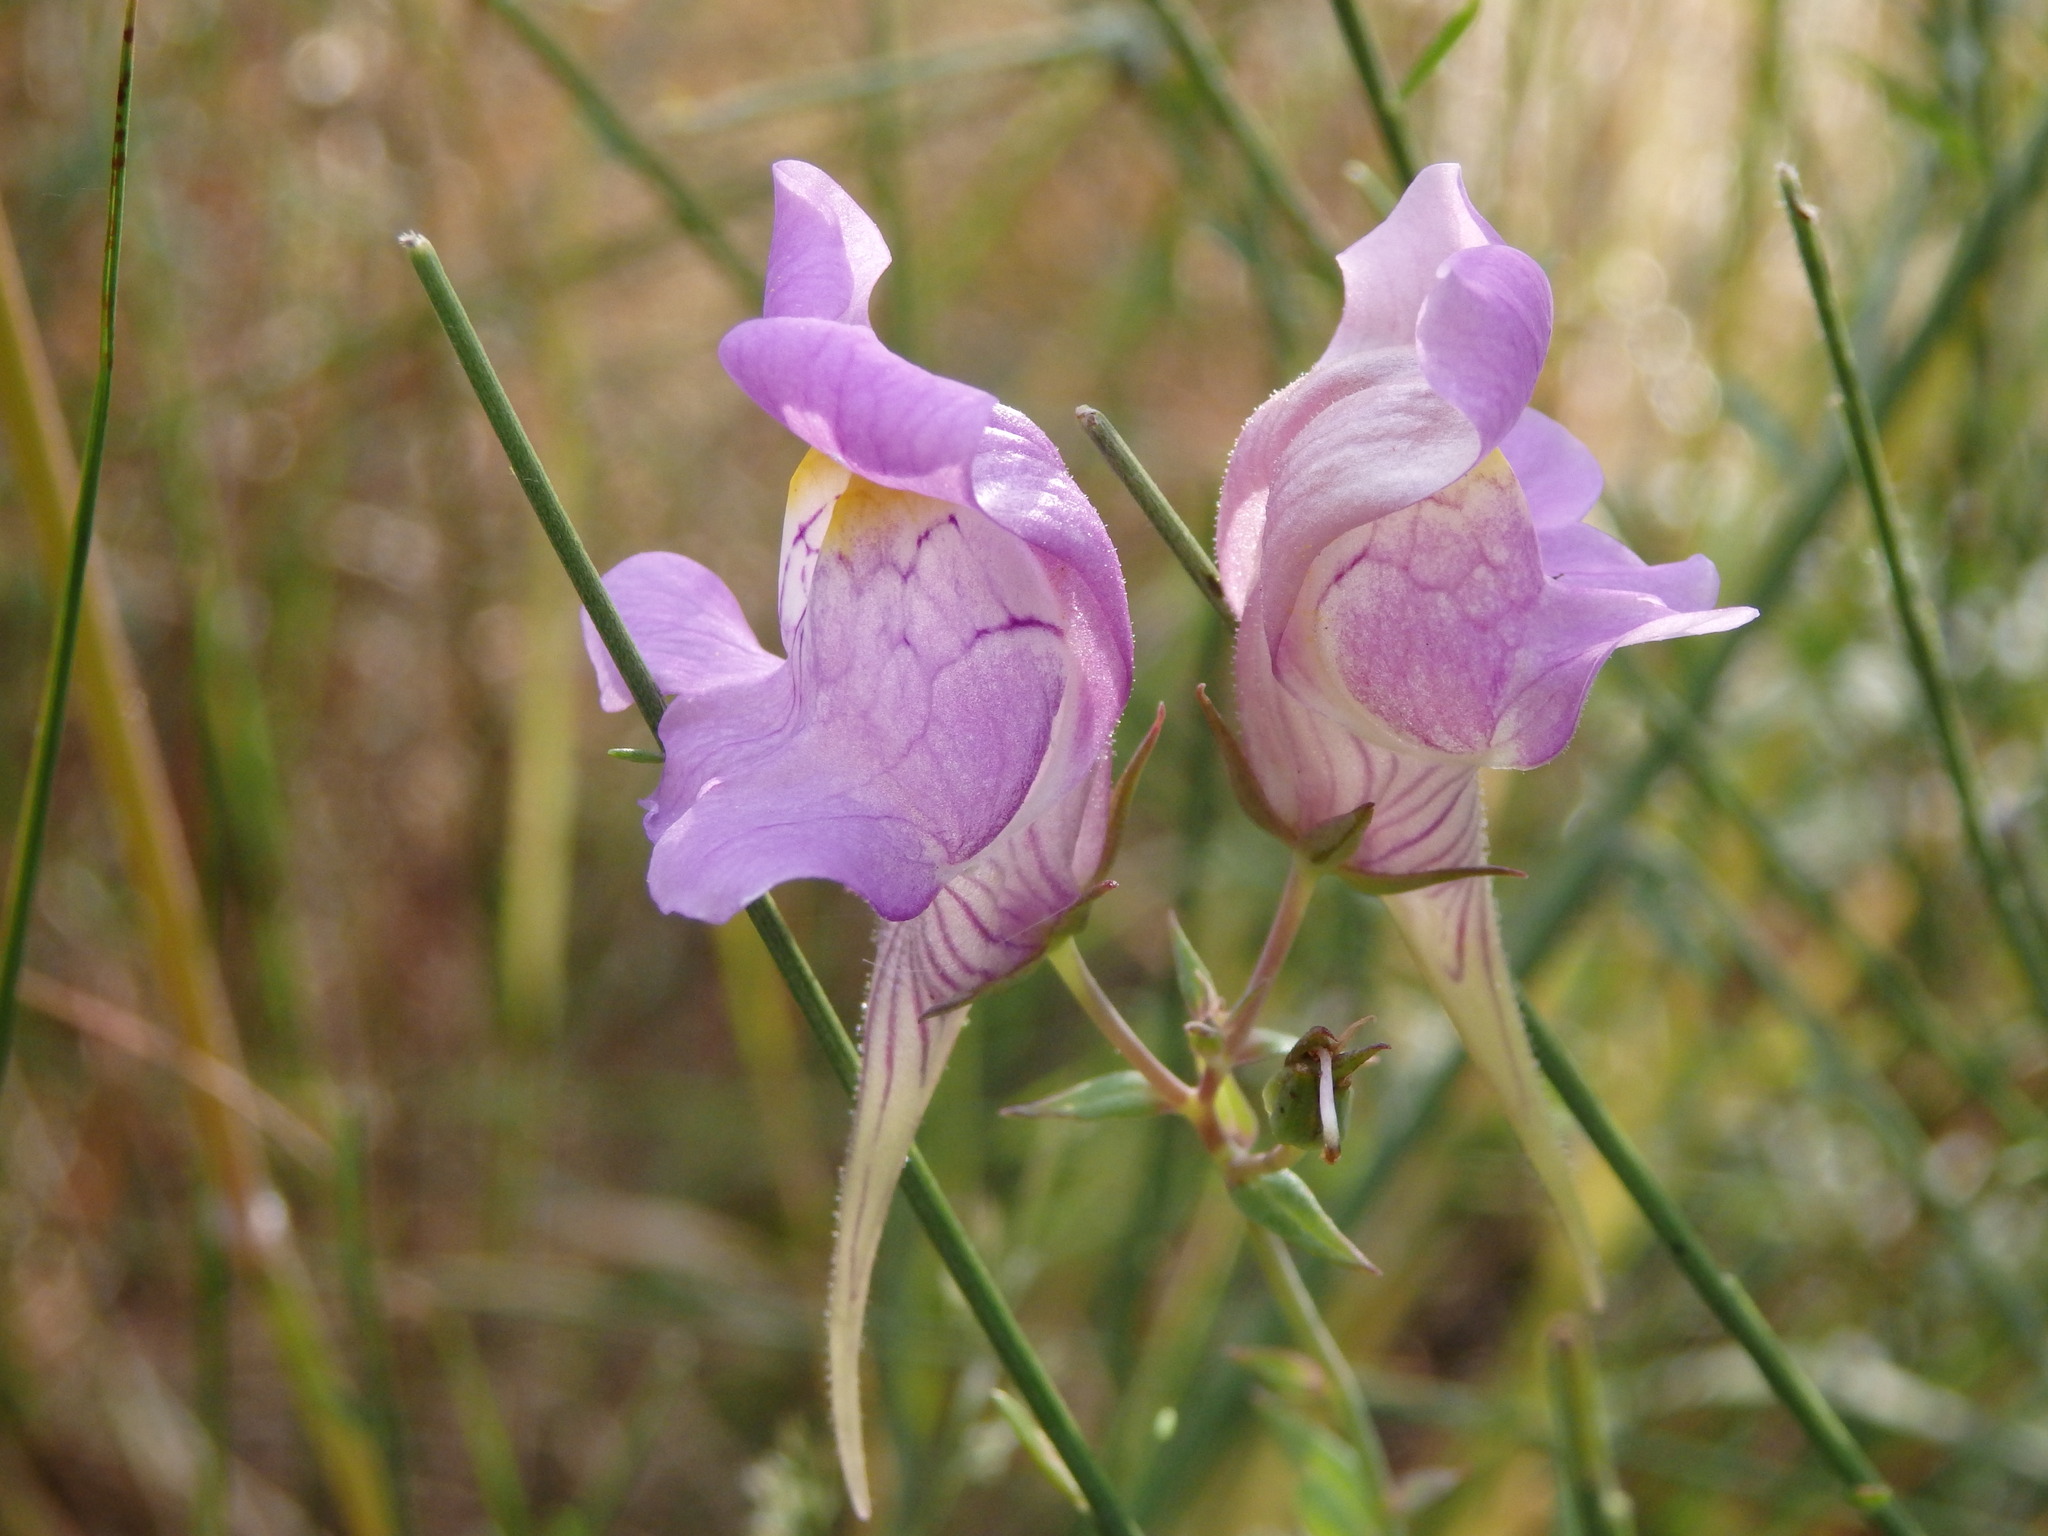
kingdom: Plantae
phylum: Tracheophyta
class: Magnoliopsida
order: Lamiales
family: Plantaginaceae
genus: Linaria
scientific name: Linaria triornithophora
